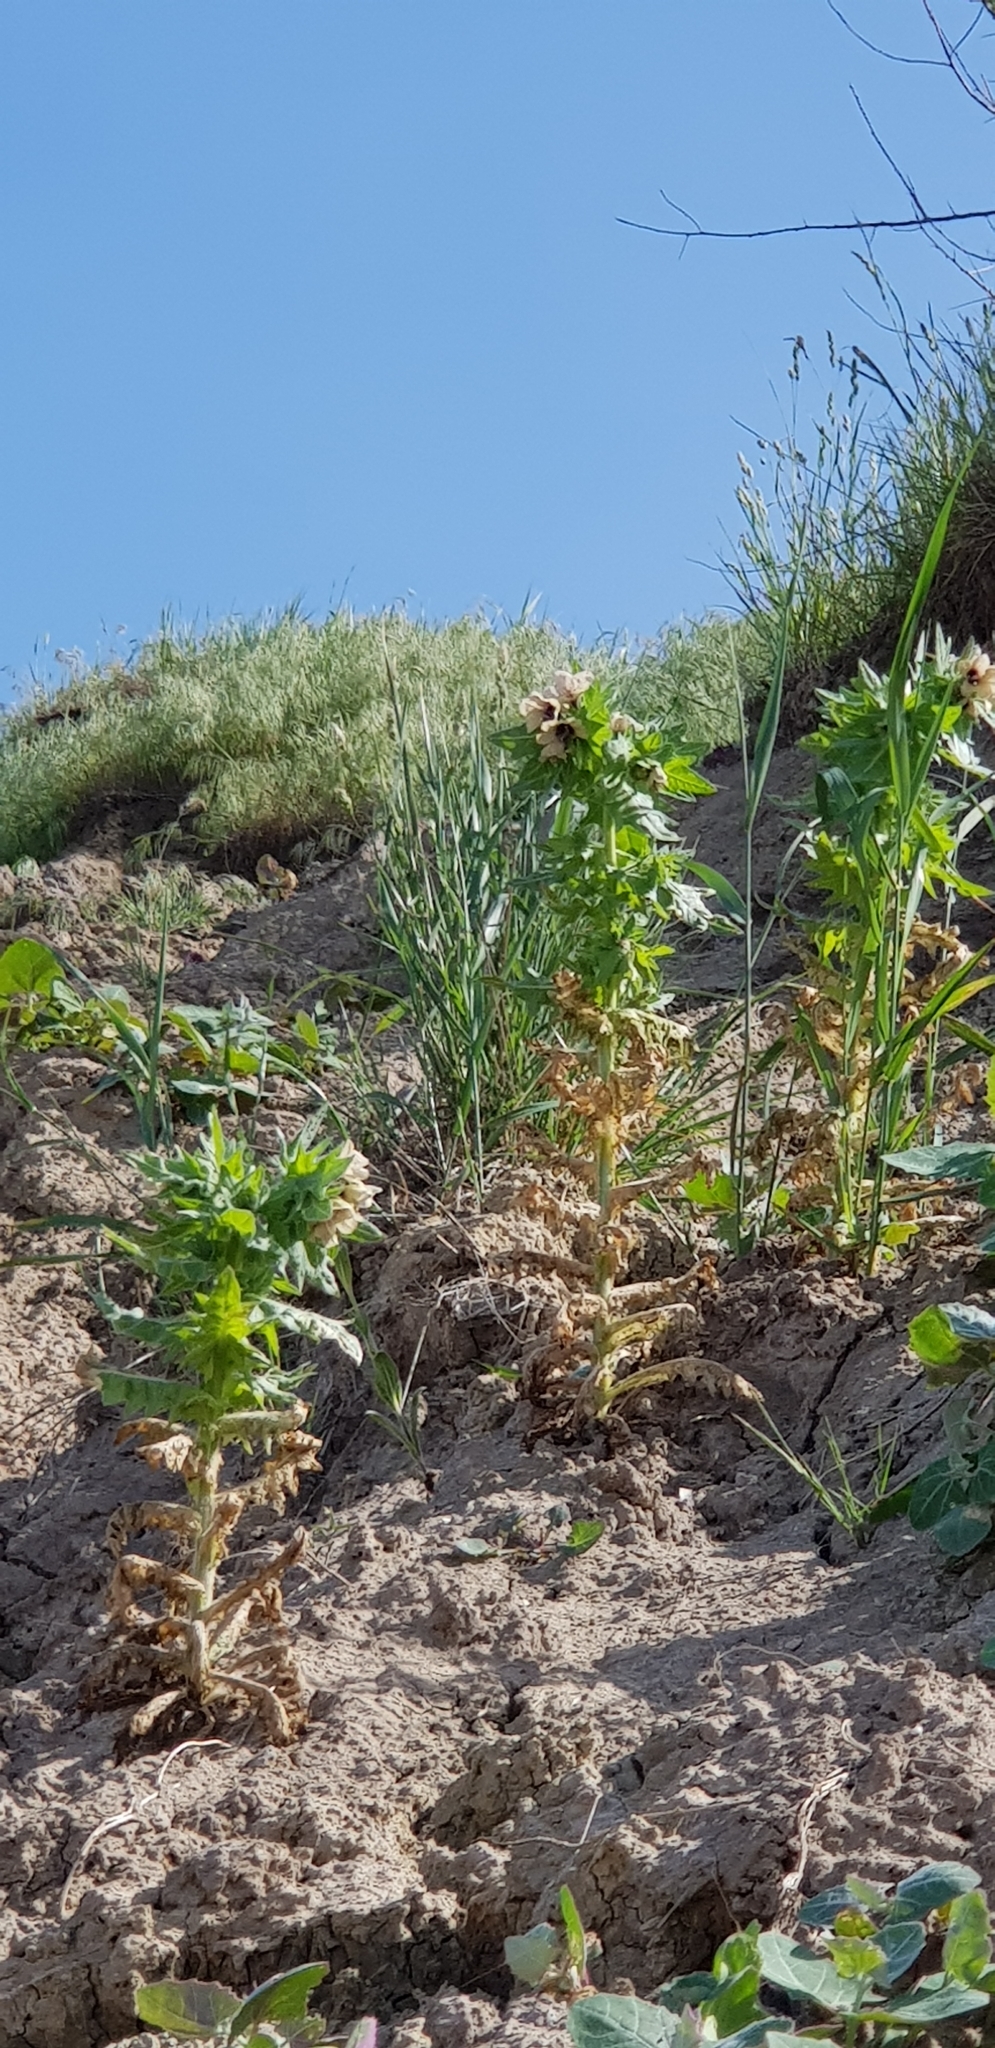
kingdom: Plantae
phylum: Tracheophyta
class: Magnoliopsida
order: Solanales
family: Solanaceae
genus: Hyoscyamus
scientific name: Hyoscyamus niger
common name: Henbane
